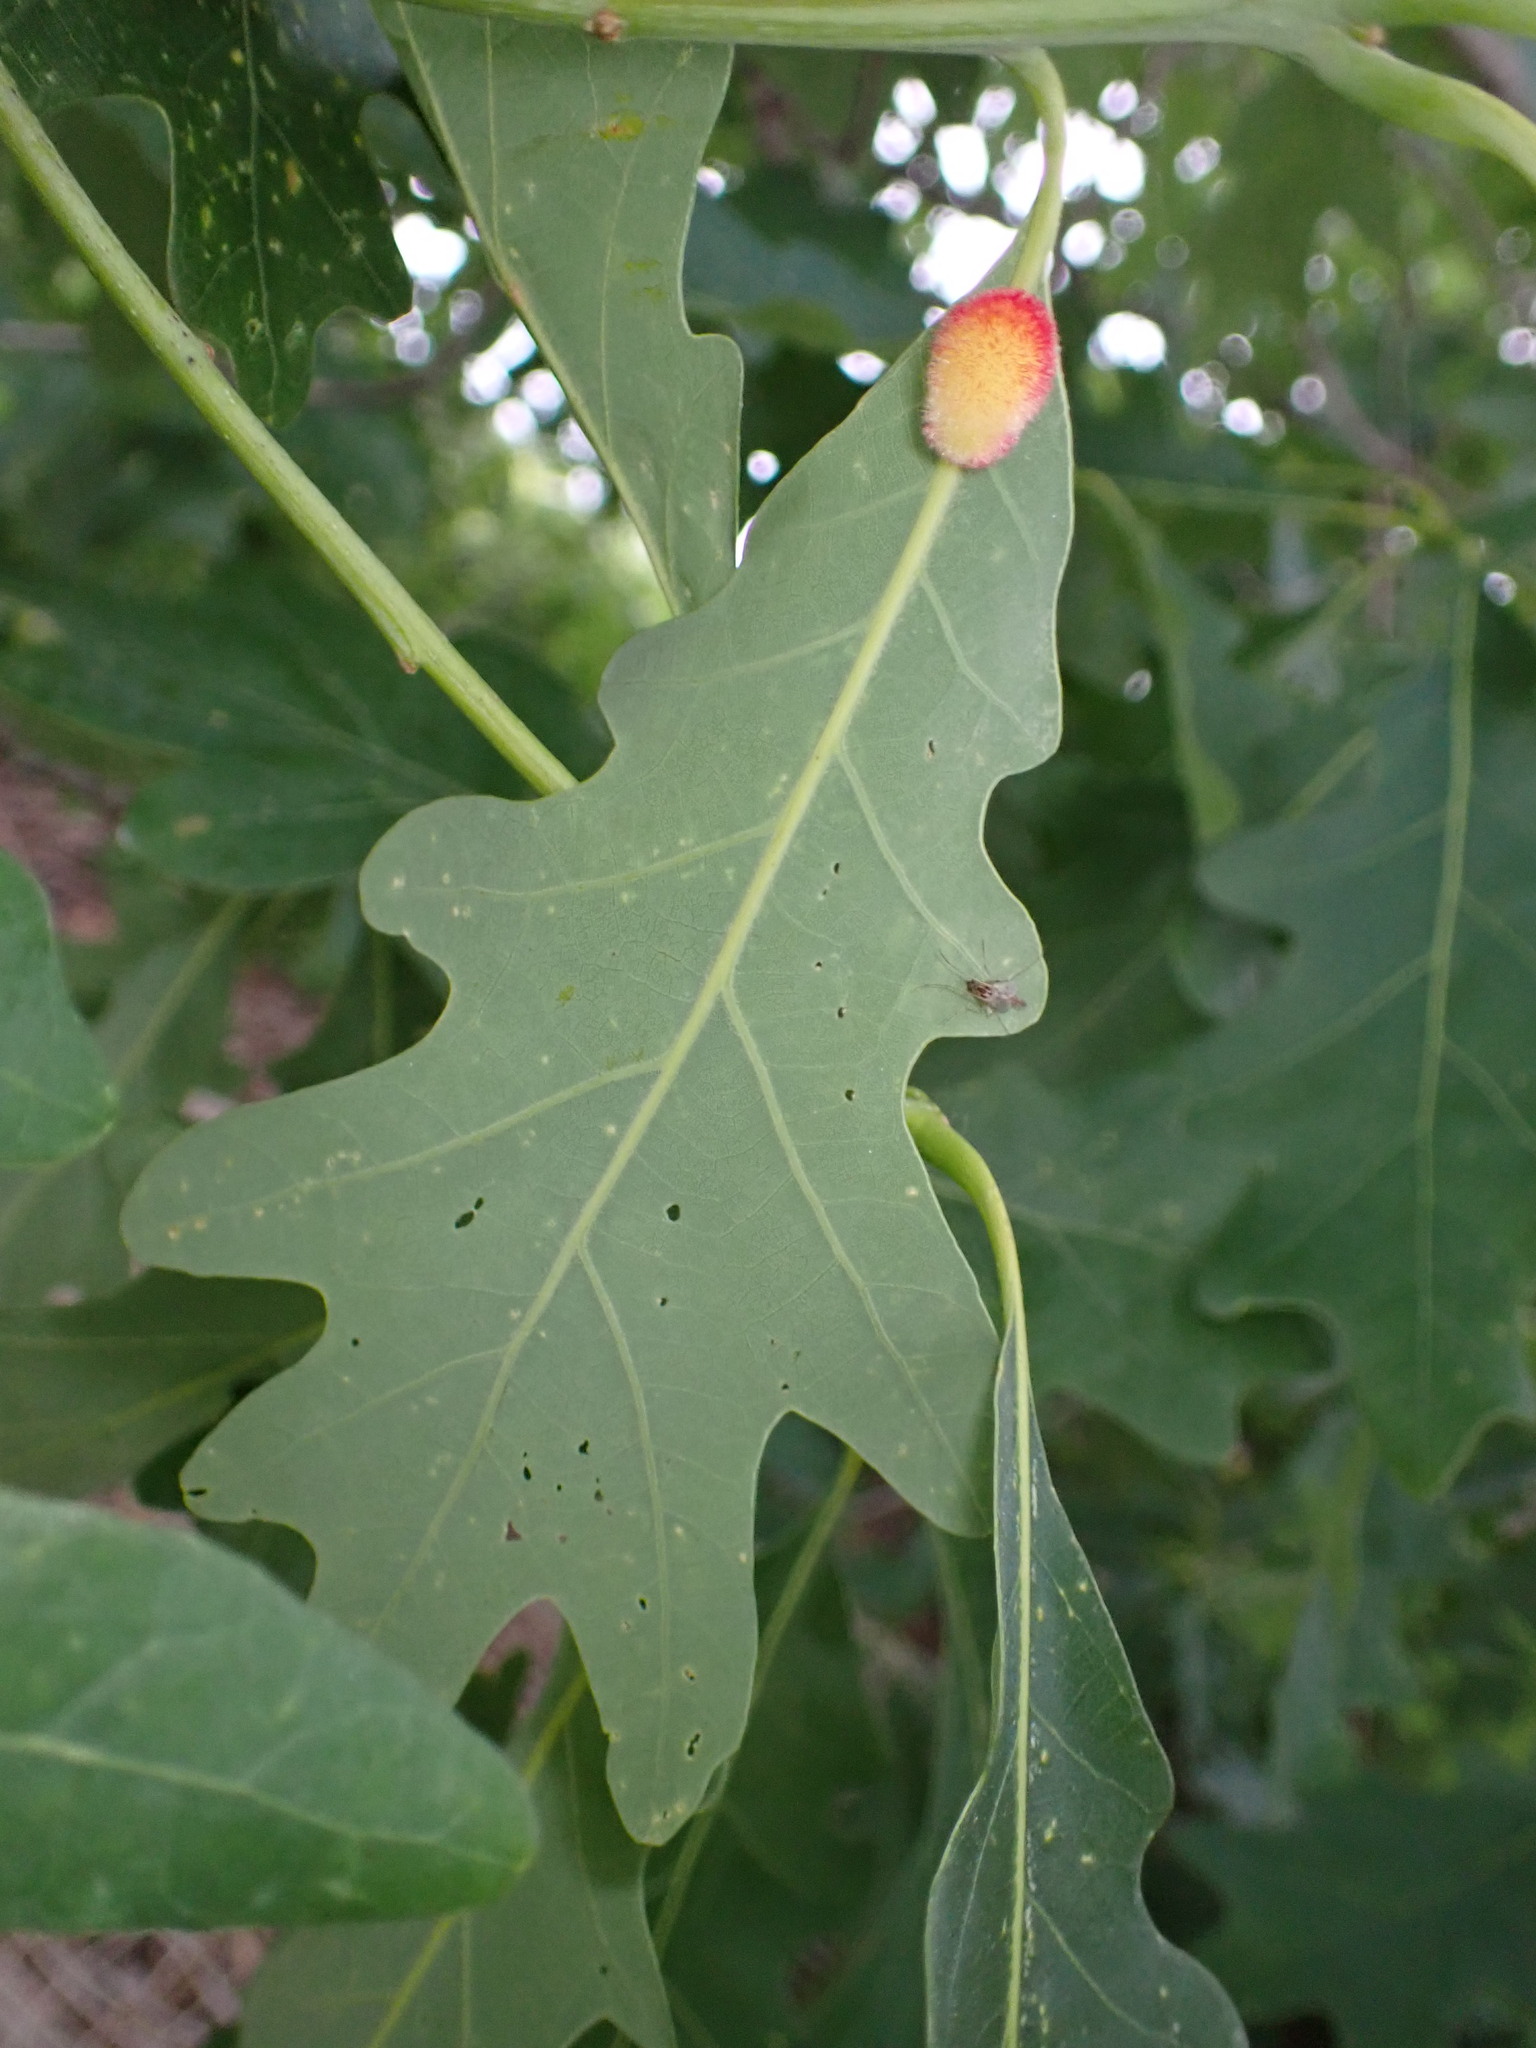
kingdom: Animalia
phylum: Arthropoda
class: Insecta
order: Hymenoptera
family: Cynipidae
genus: Acraspis
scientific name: Acraspis erinacei
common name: Hedgehog gall wasp
